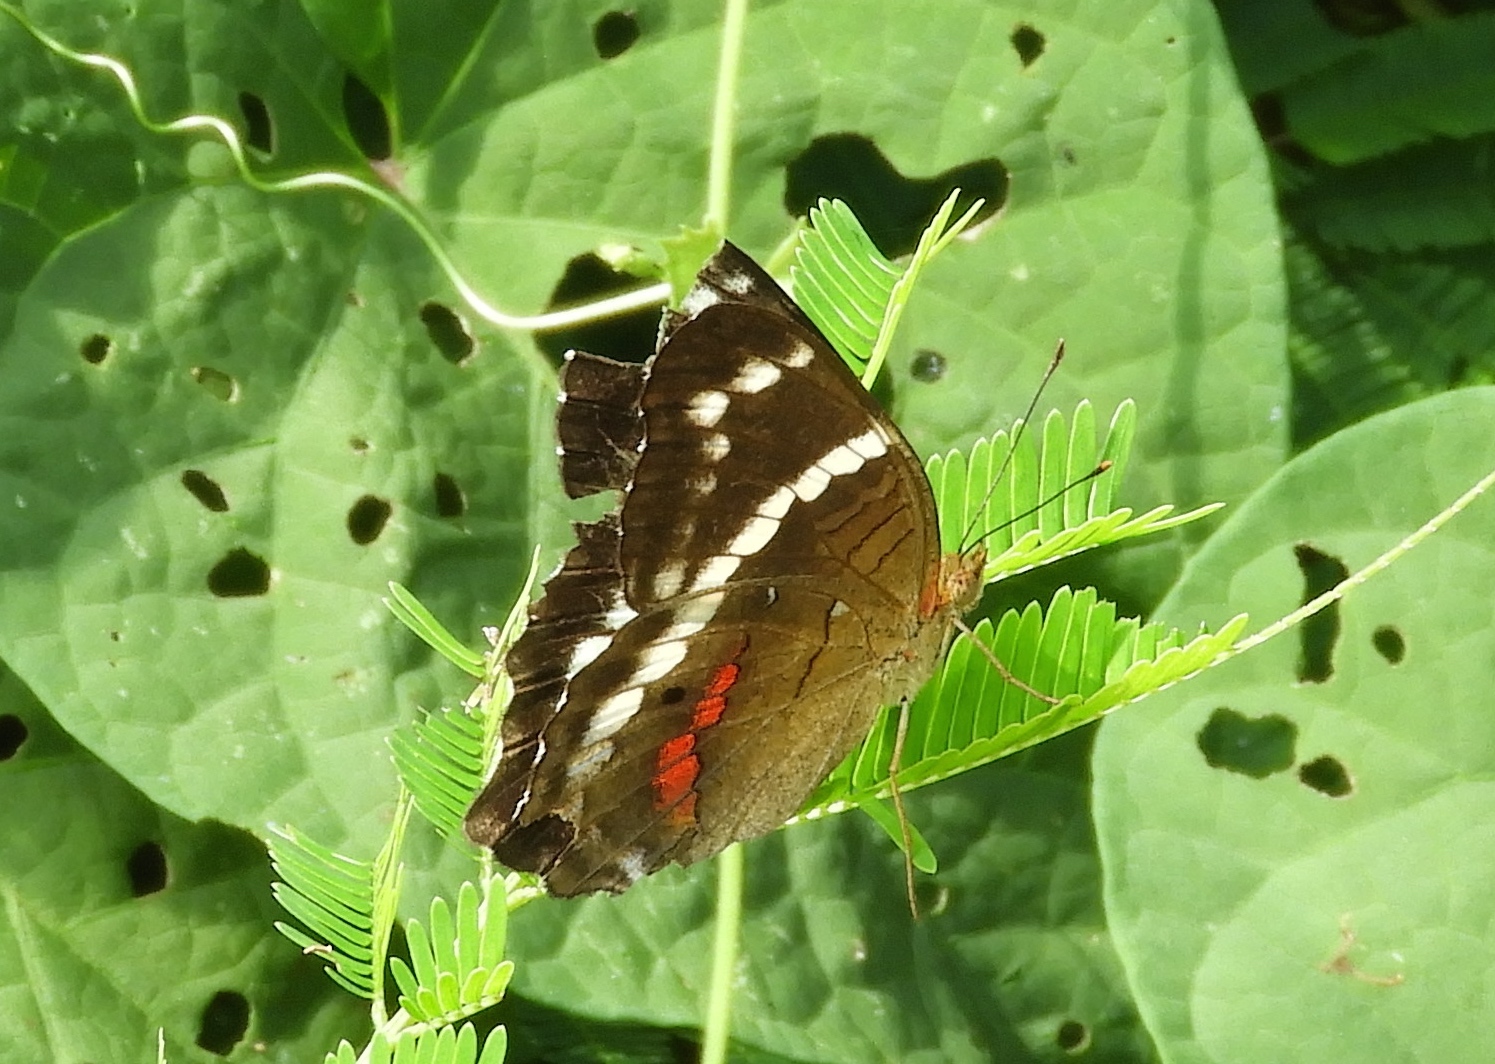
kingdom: Animalia
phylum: Arthropoda
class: Insecta
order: Lepidoptera
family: Nymphalidae
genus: Anartia
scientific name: Anartia fatima
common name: Banded peacock
